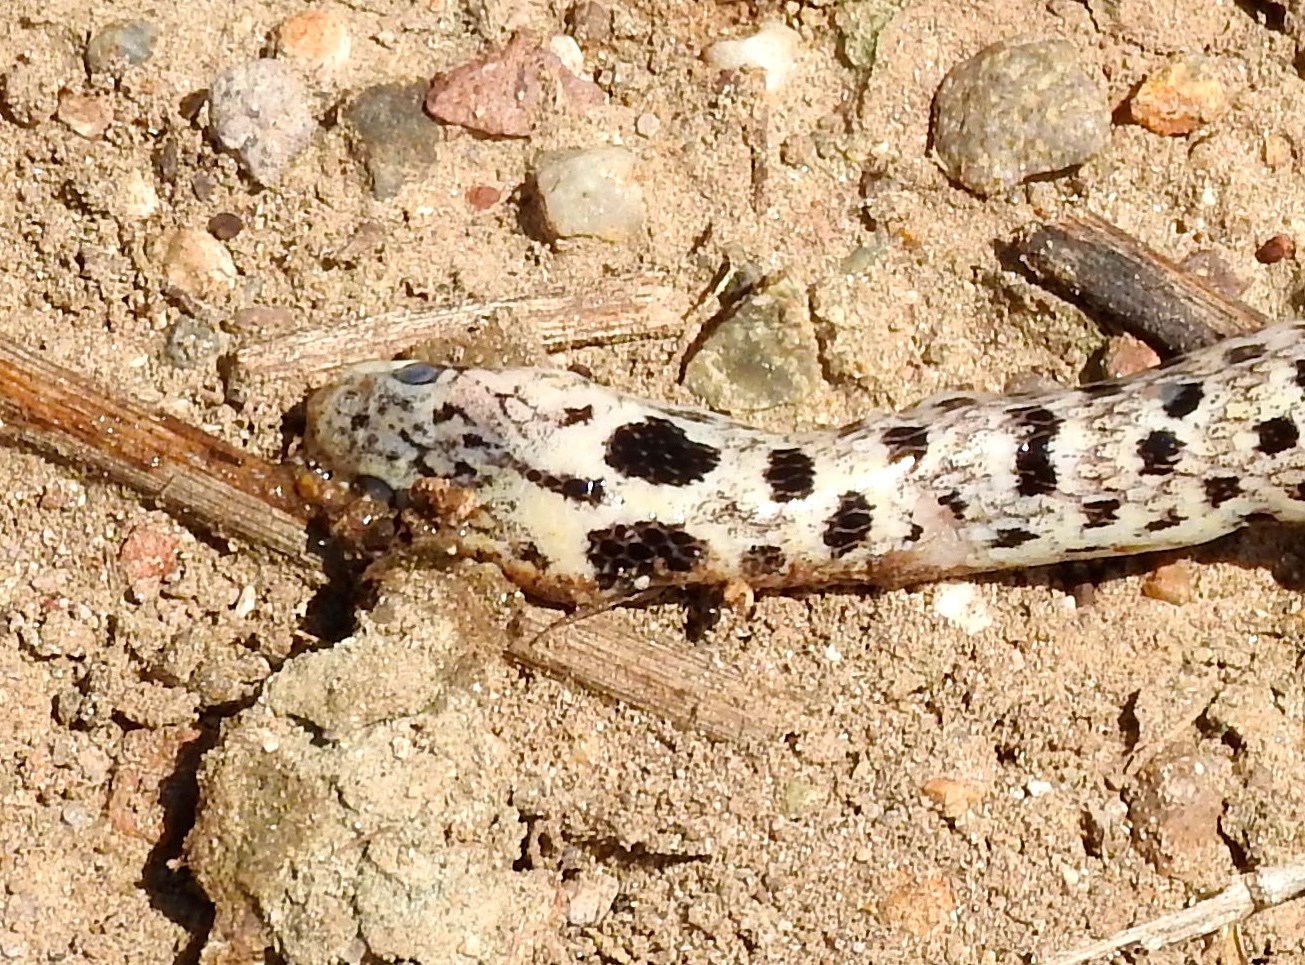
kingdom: Animalia
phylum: Chordata
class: Squamata
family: Colubridae
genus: Leptodeira
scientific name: Leptodeira punctata
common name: Western cat-eyed snake
